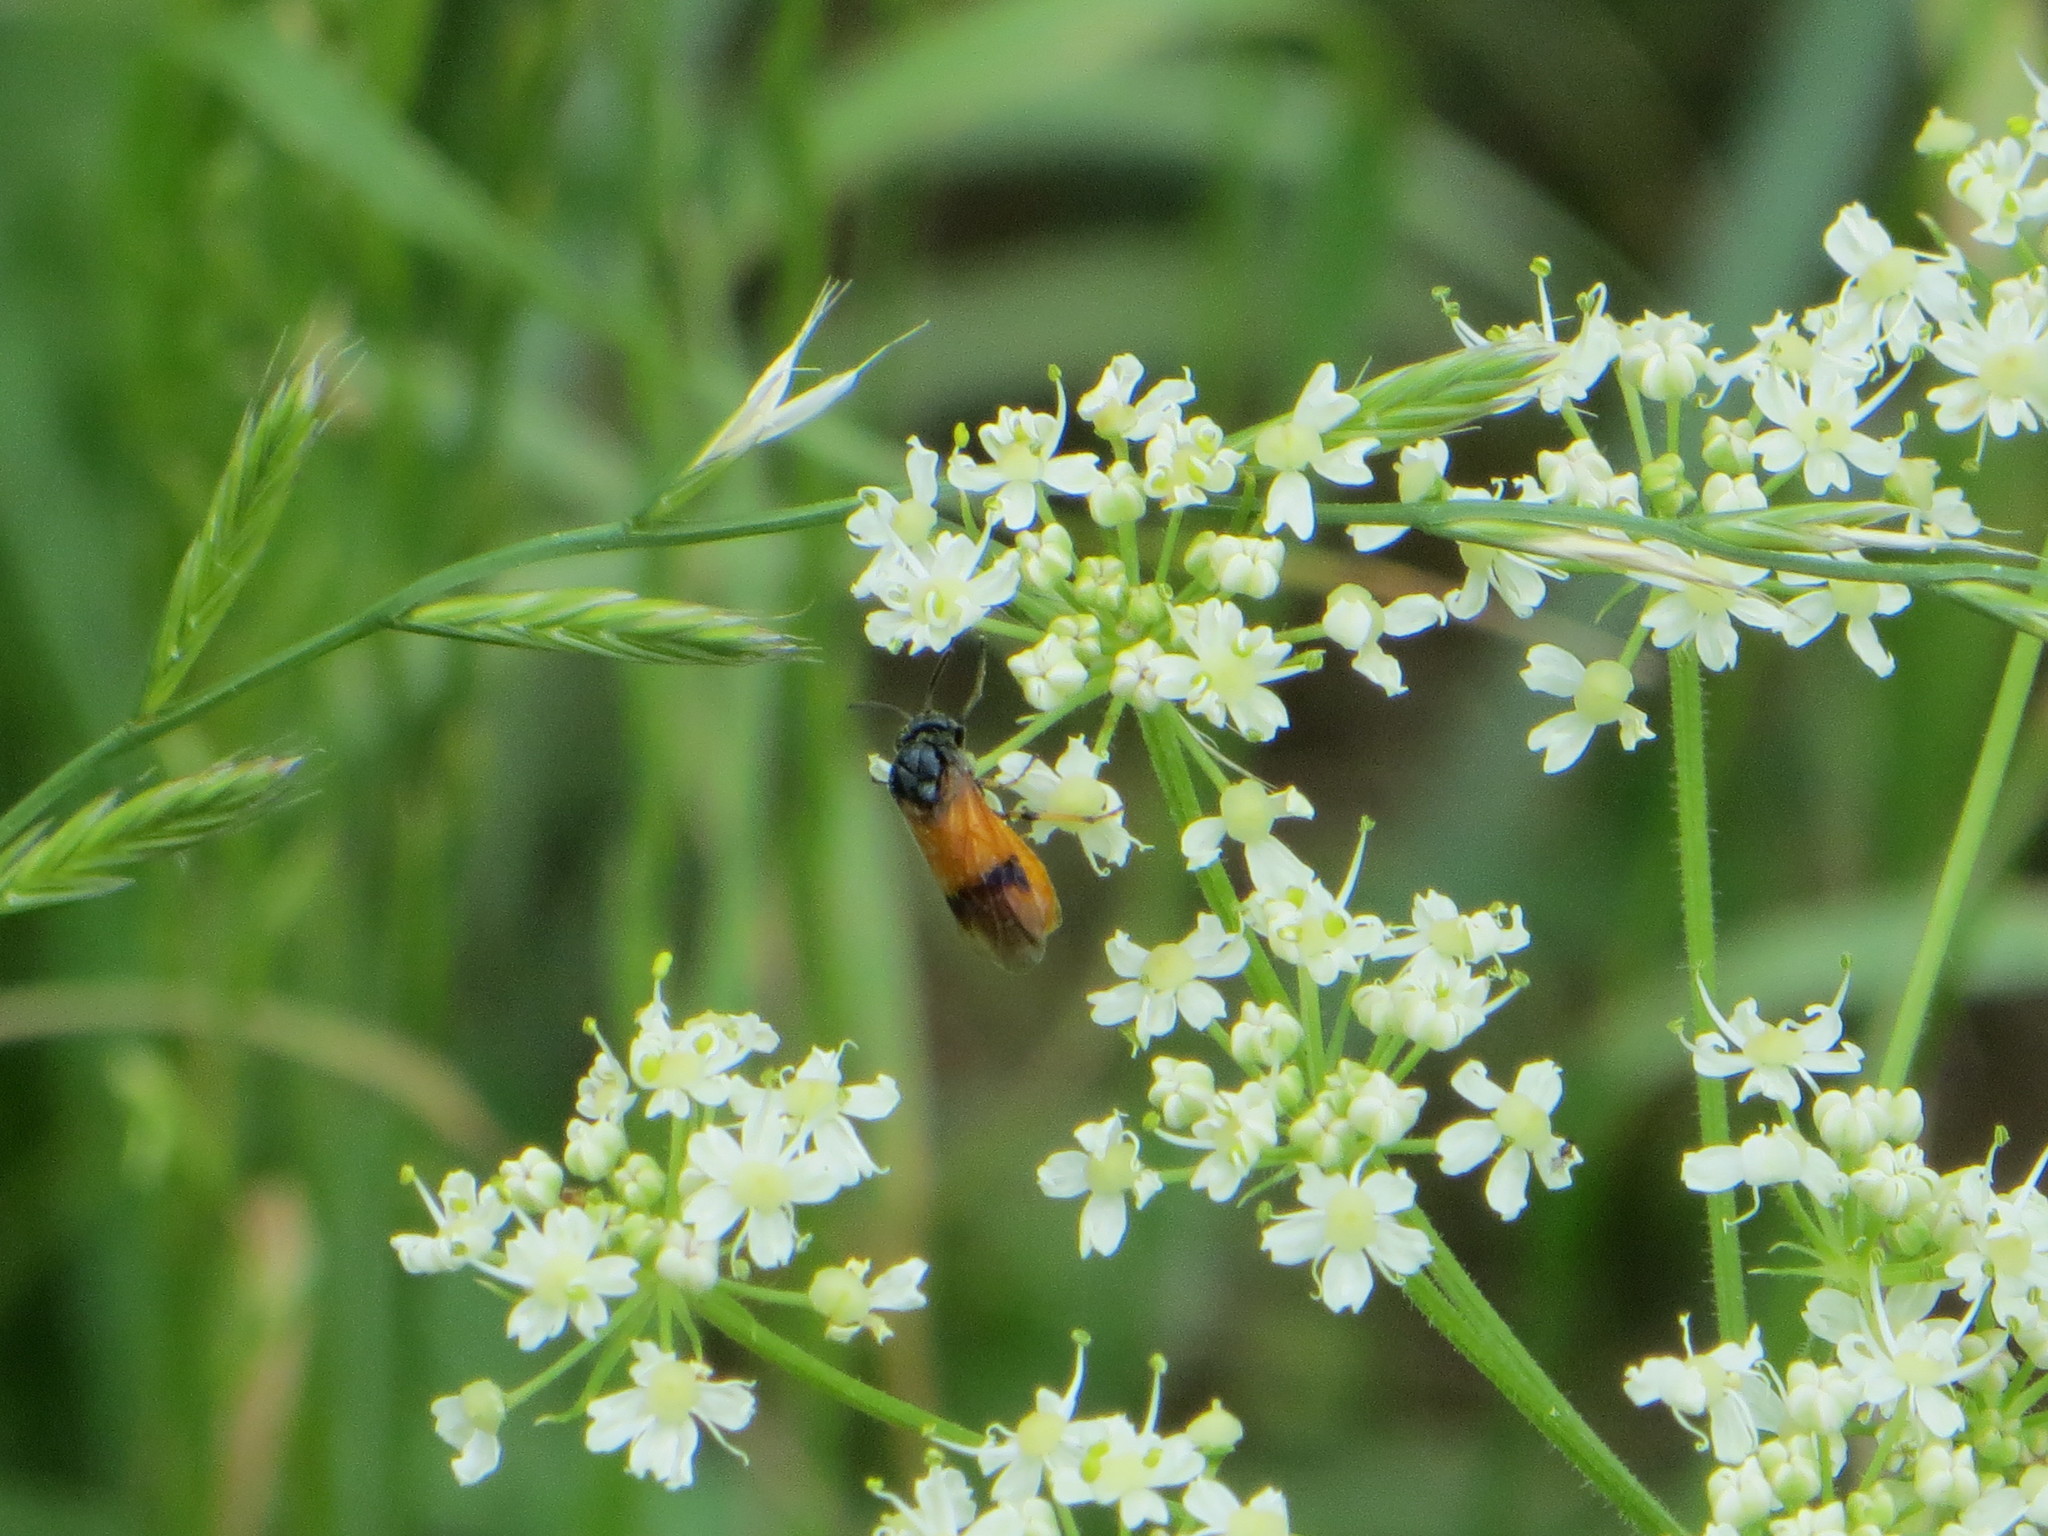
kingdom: Animalia
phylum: Arthropoda
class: Insecta
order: Hymenoptera
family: Argidae
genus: Arge
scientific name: Arge cyanocrocea
